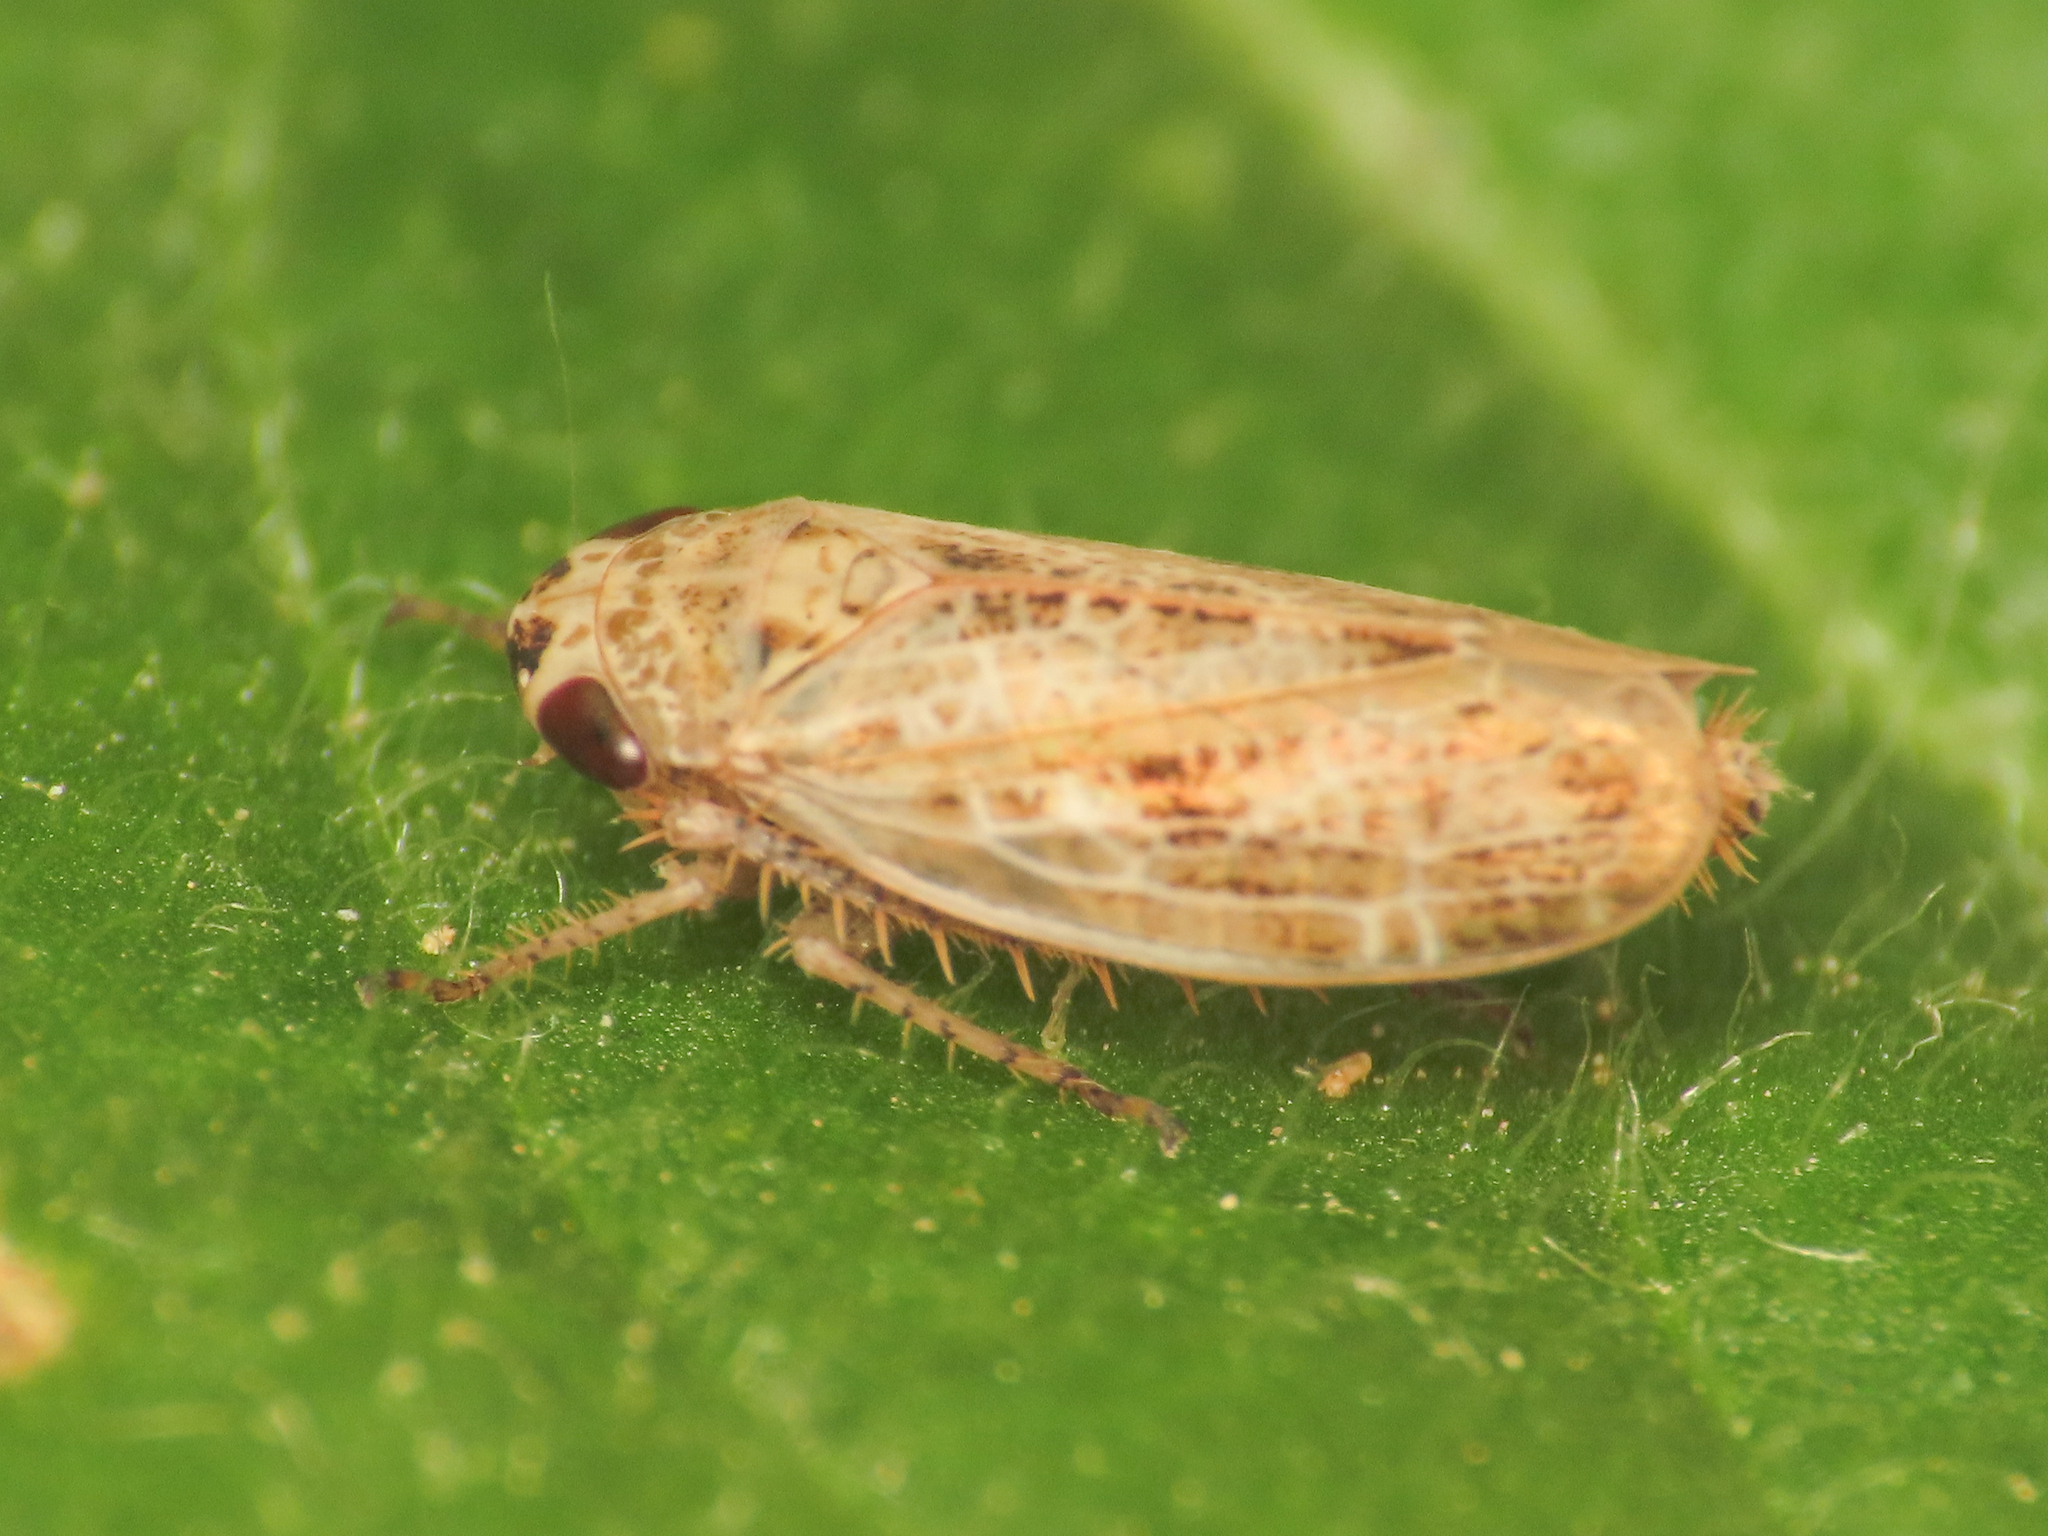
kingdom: Animalia
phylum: Arthropoda
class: Insecta
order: Hemiptera
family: Cicadellidae
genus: Allygidius
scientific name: Allygidius abbreviatus
